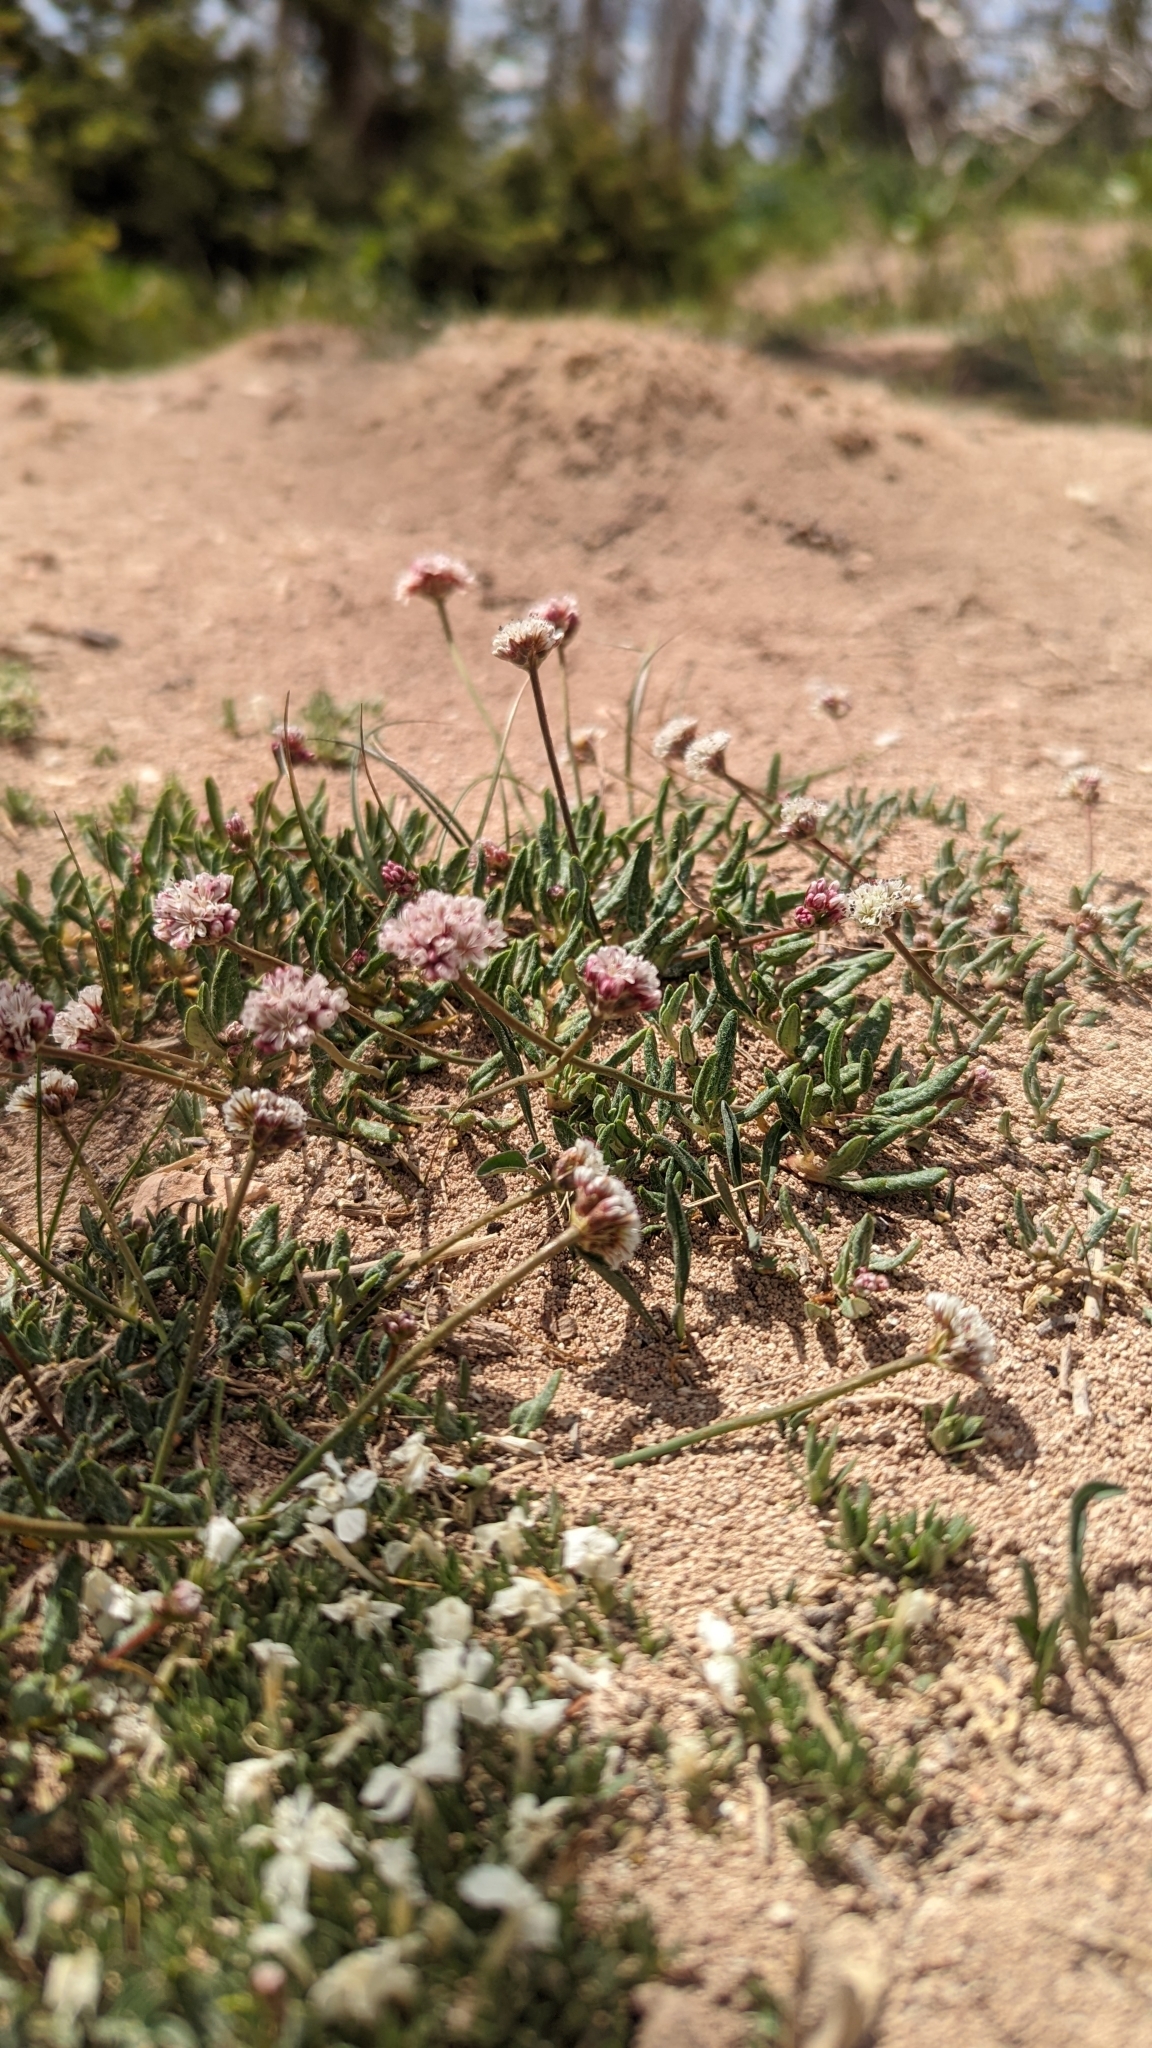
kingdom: Plantae
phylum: Tracheophyta
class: Magnoliopsida
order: Caryophyllales
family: Polygonaceae
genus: Eriogonum
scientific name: Eriogonum panguicense
